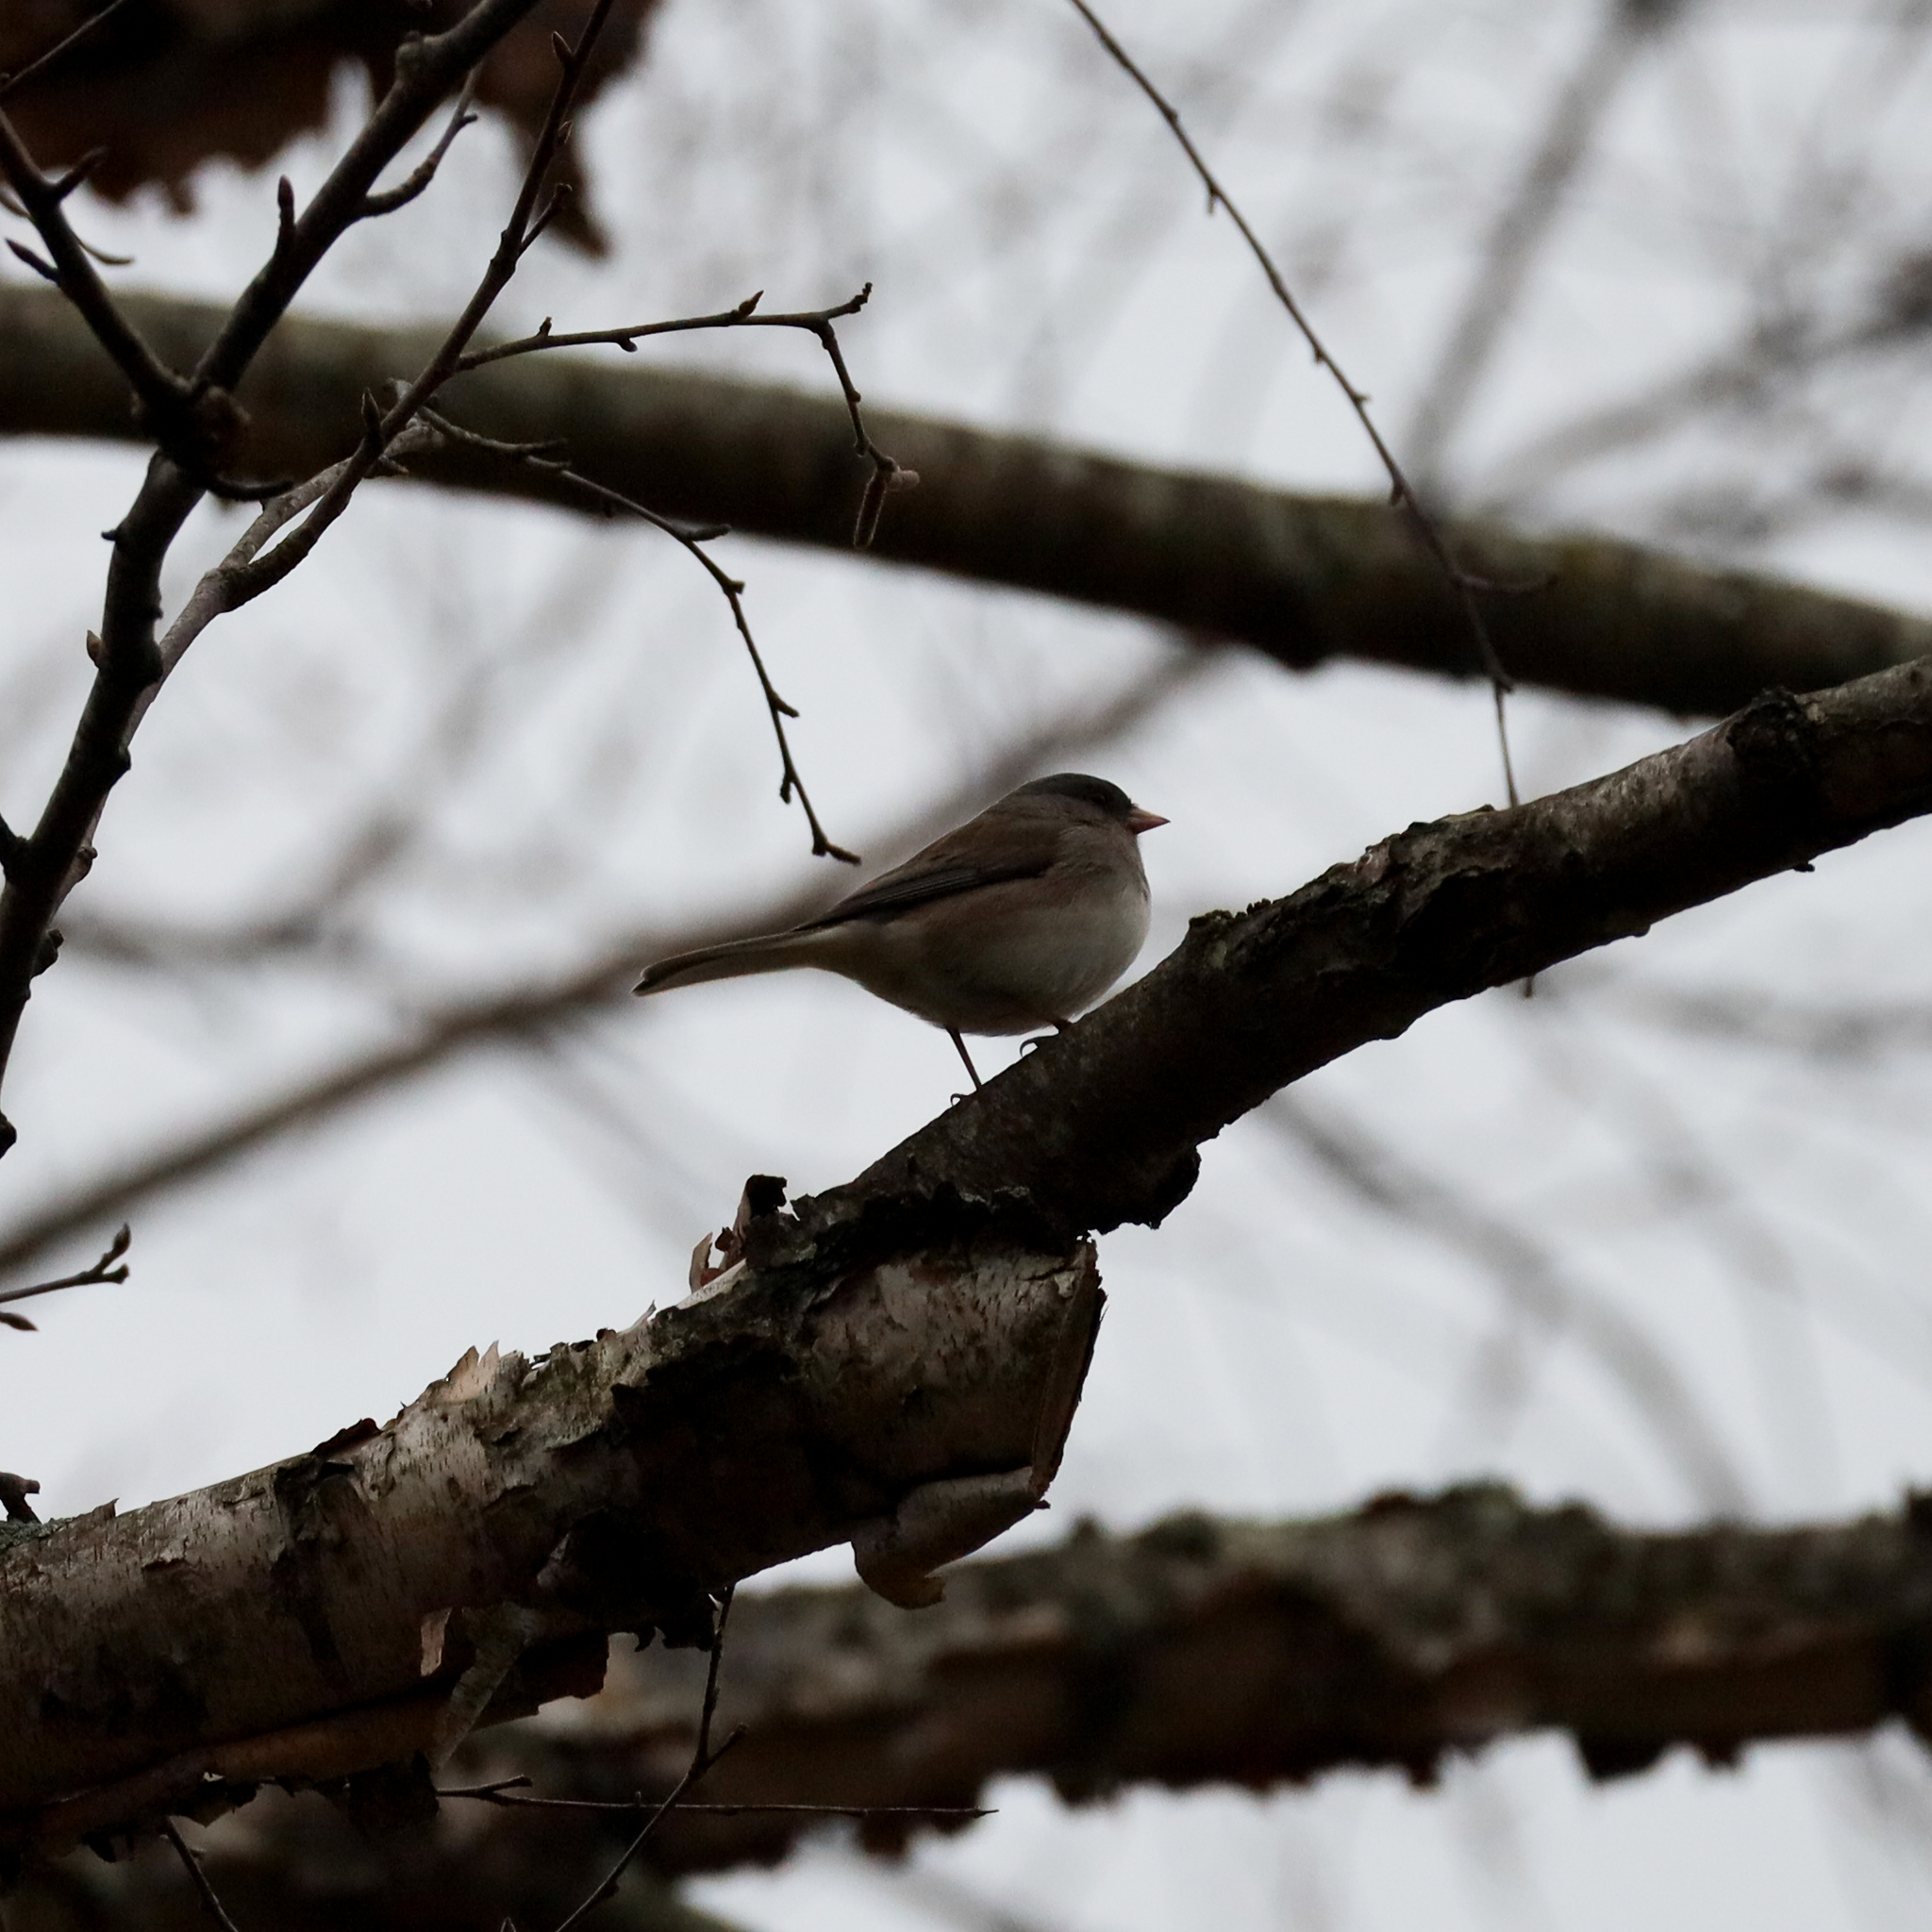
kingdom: Animalia
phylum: Chordata
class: Aves
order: Passeriformes
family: Passerellidae
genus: Junco
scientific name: Junco hyemalis
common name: Dark-eyed junco
